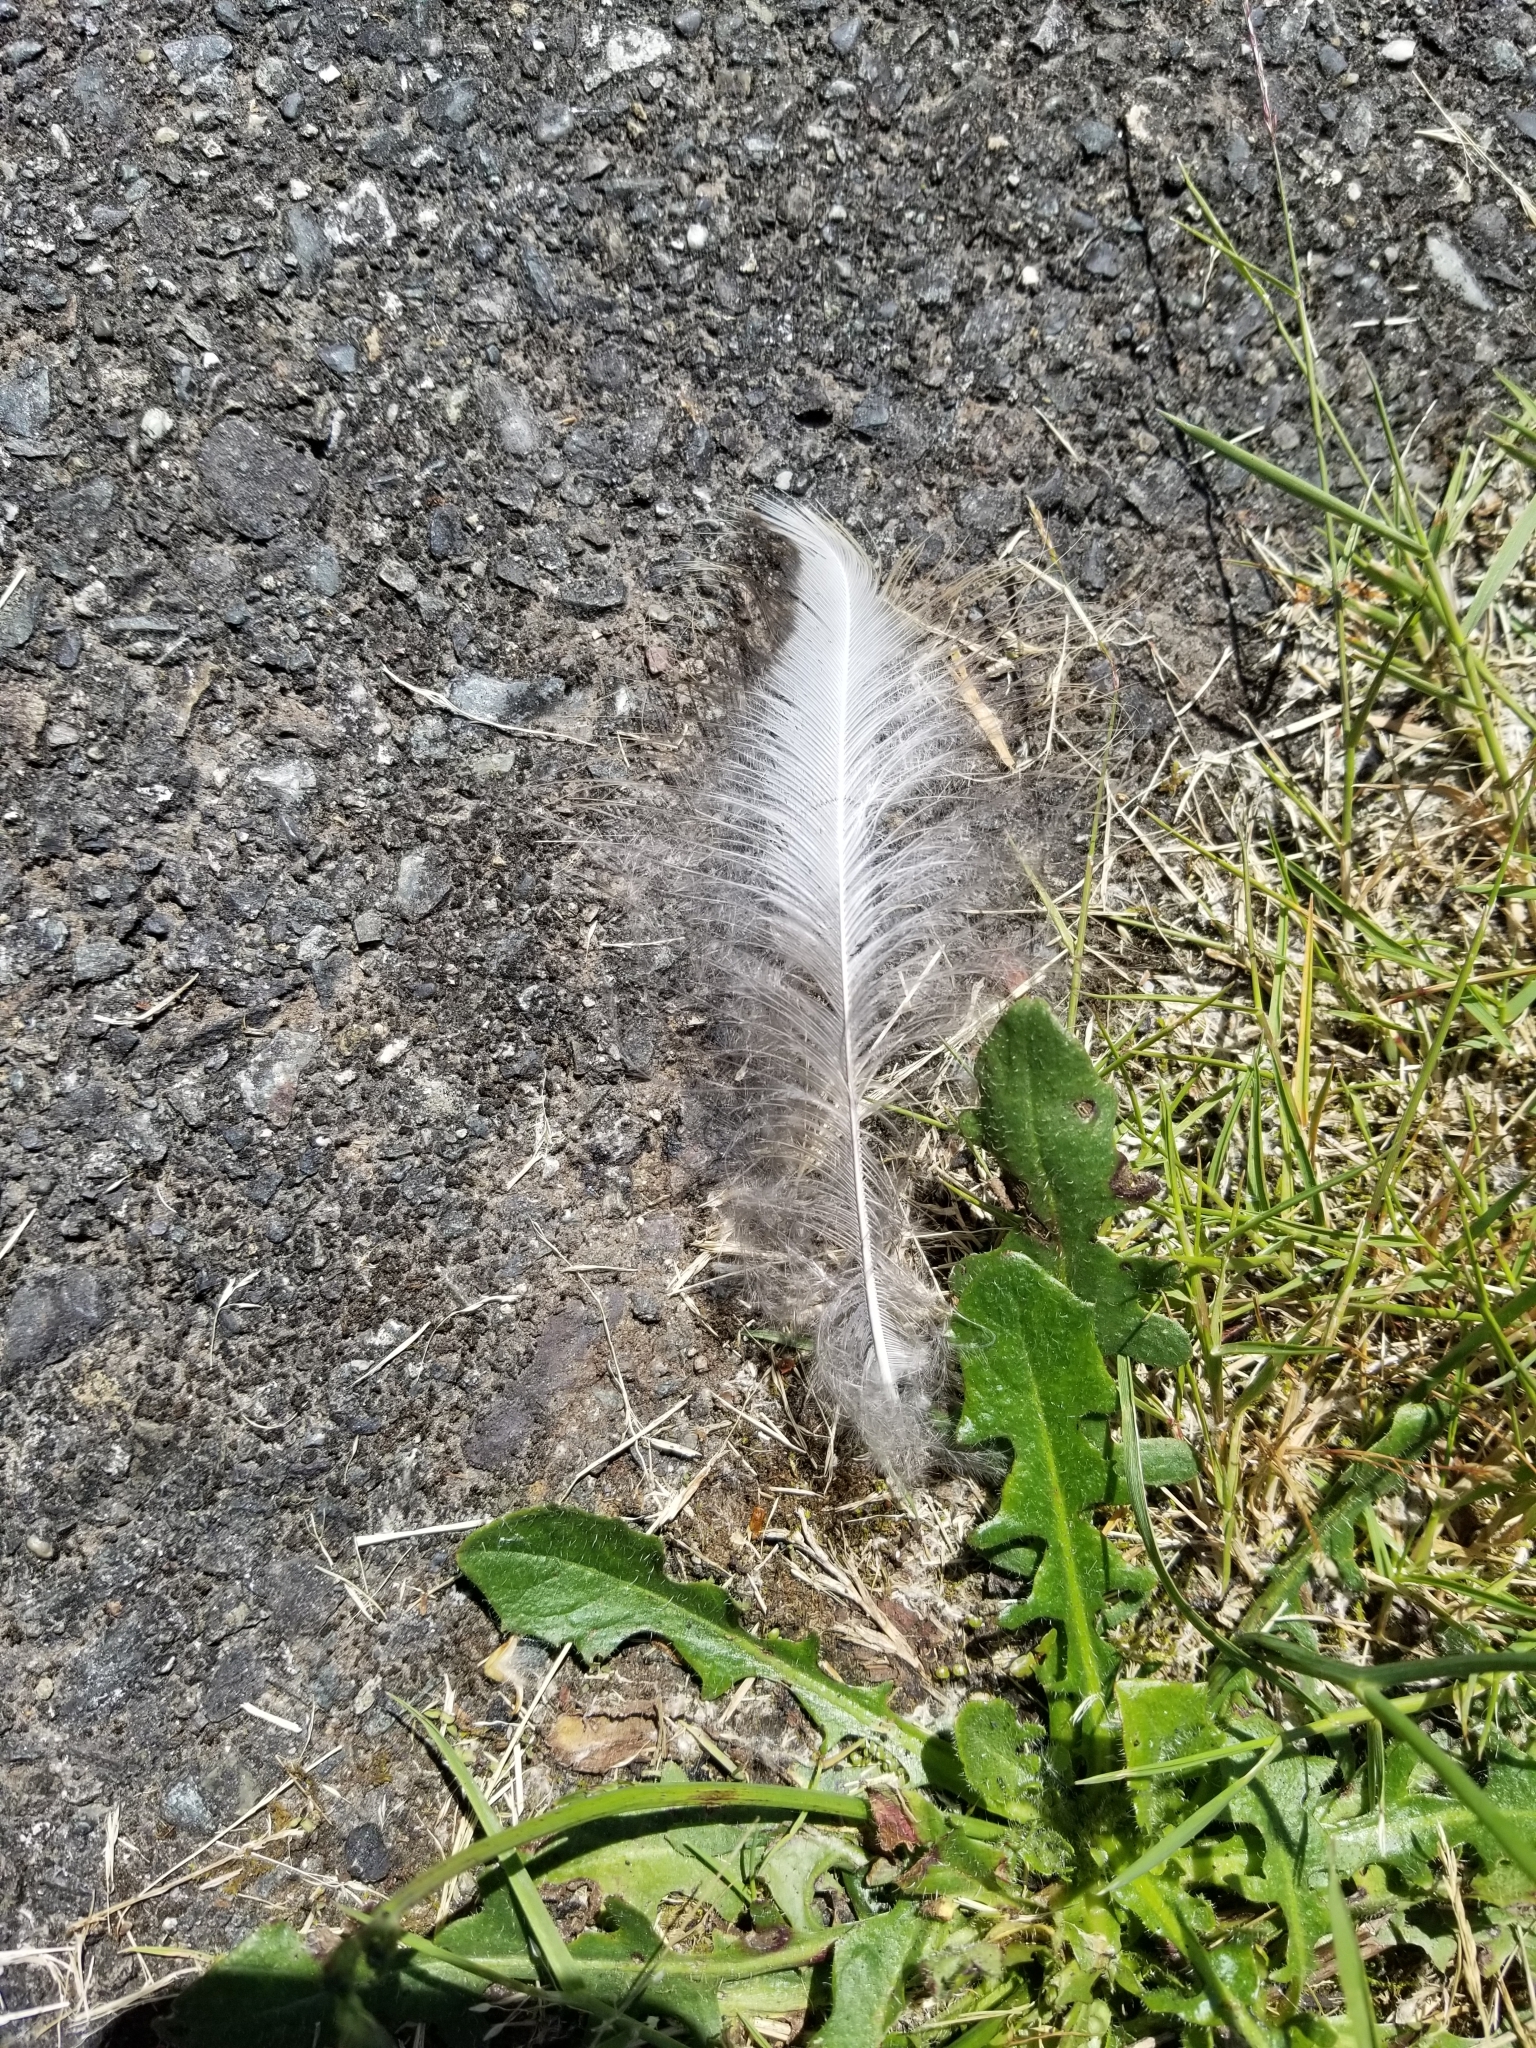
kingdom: Animalia
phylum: Chordata
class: Aves
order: Pelecaniformes
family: Ardeidae
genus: Ardea
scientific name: Ardea herodias
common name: Great blue heron
